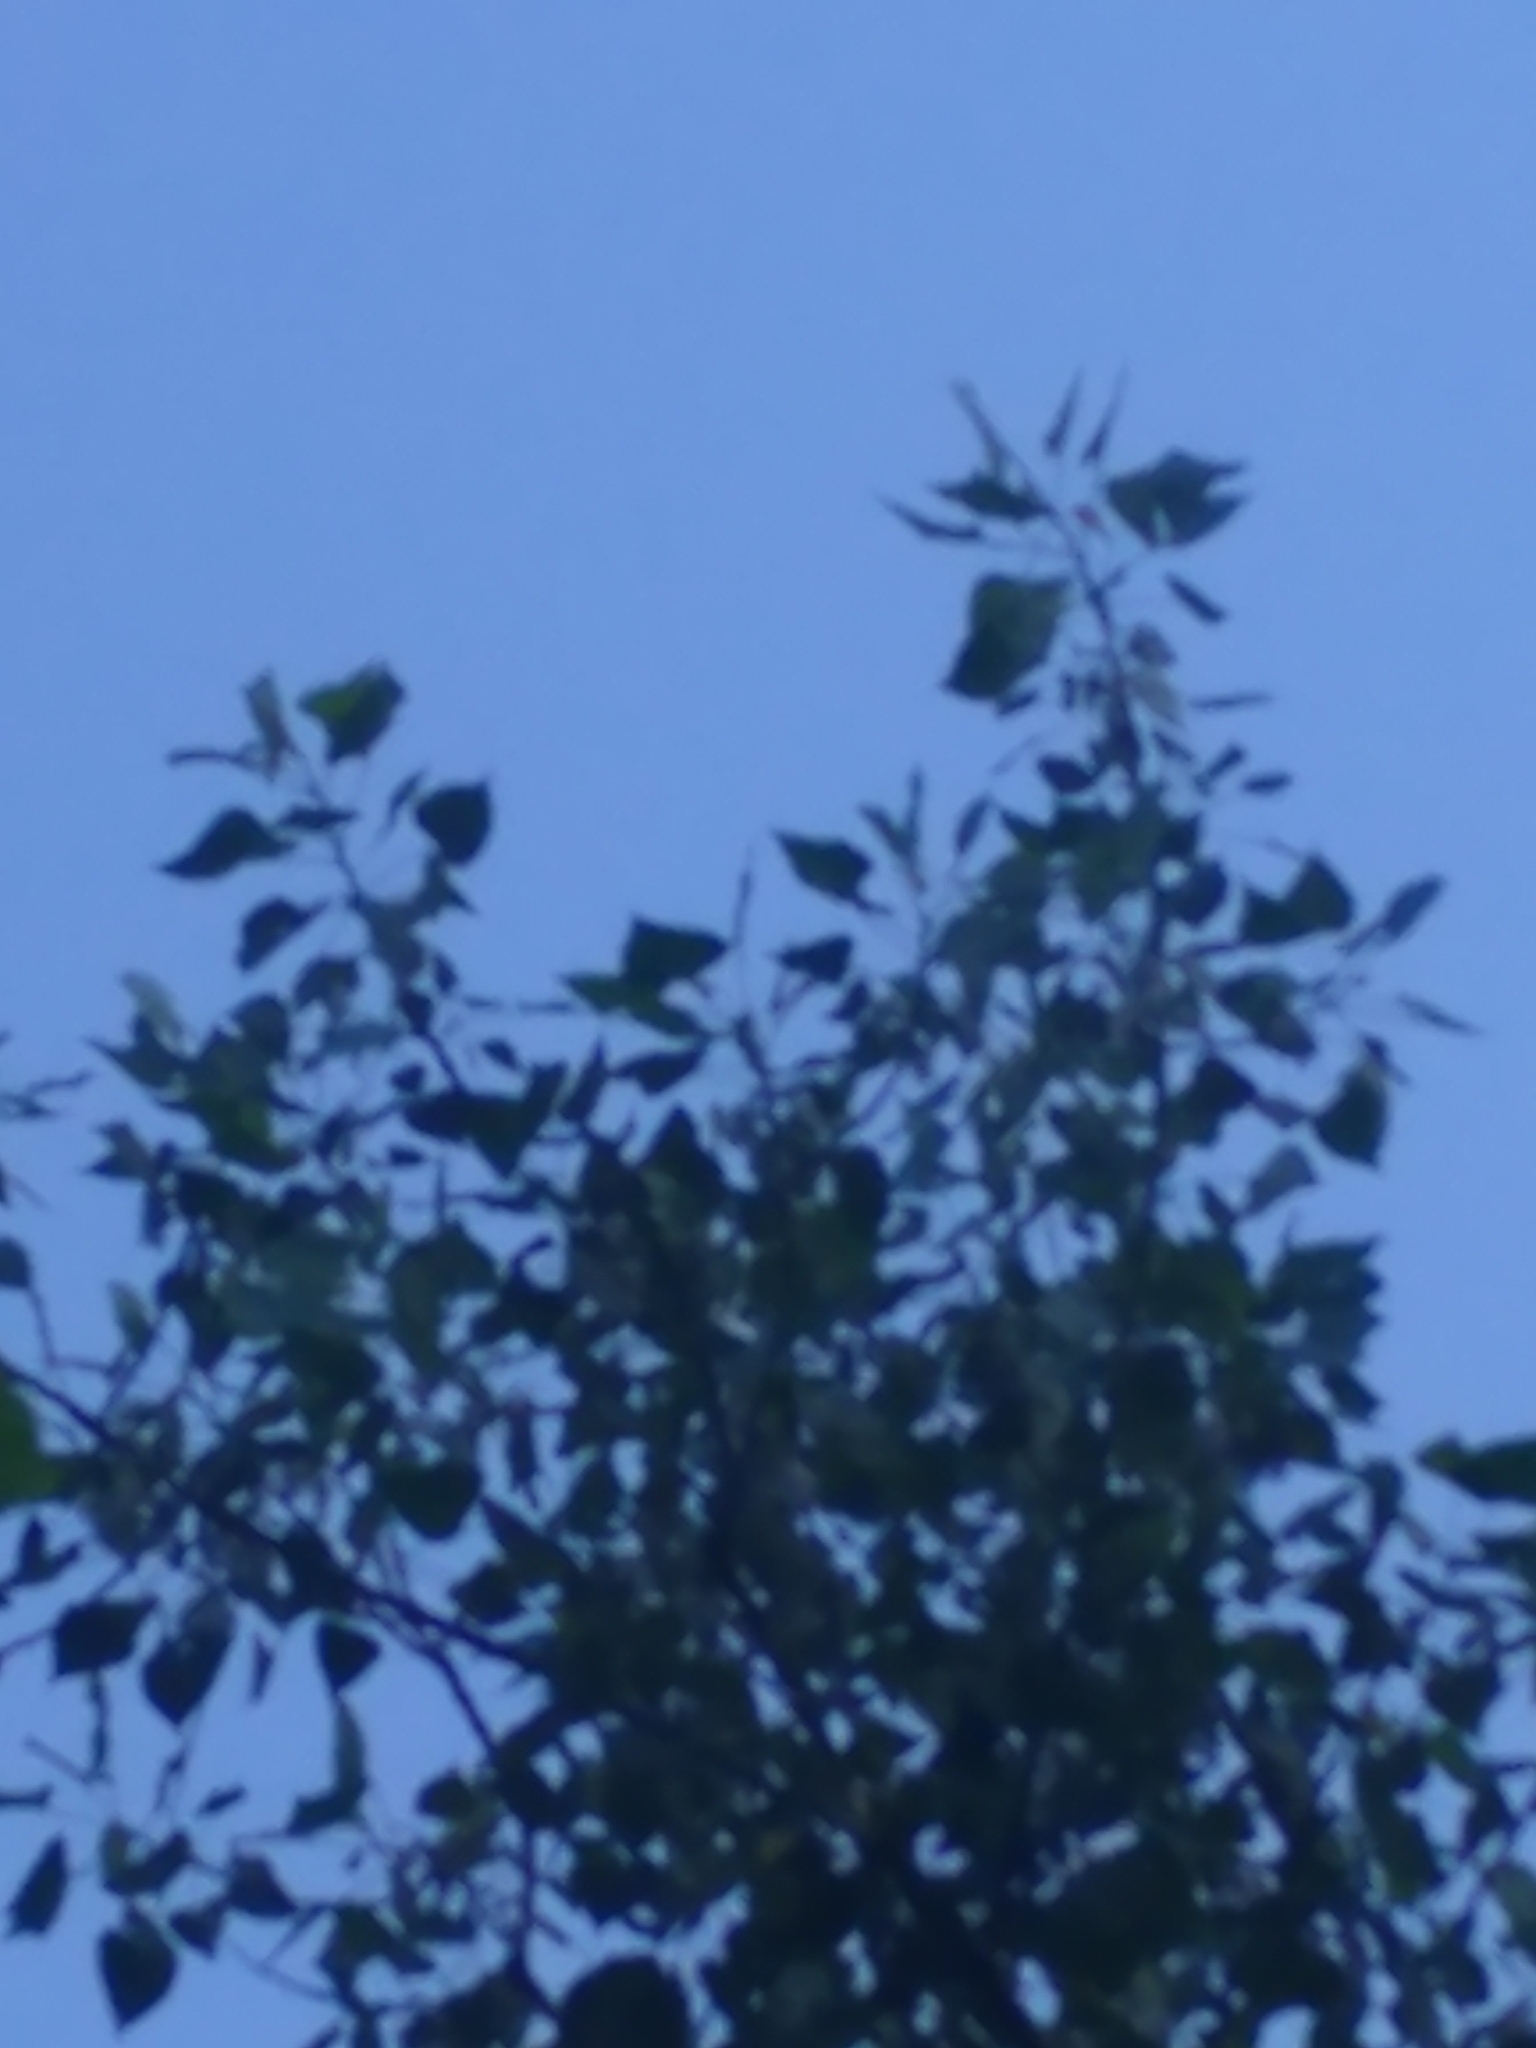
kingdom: Plantae
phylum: Tracheophyta
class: Magnoliopsida
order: Malpighiales
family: Salicaceae
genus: Populus
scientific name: Populus deltoides
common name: Eastern cottonwood
